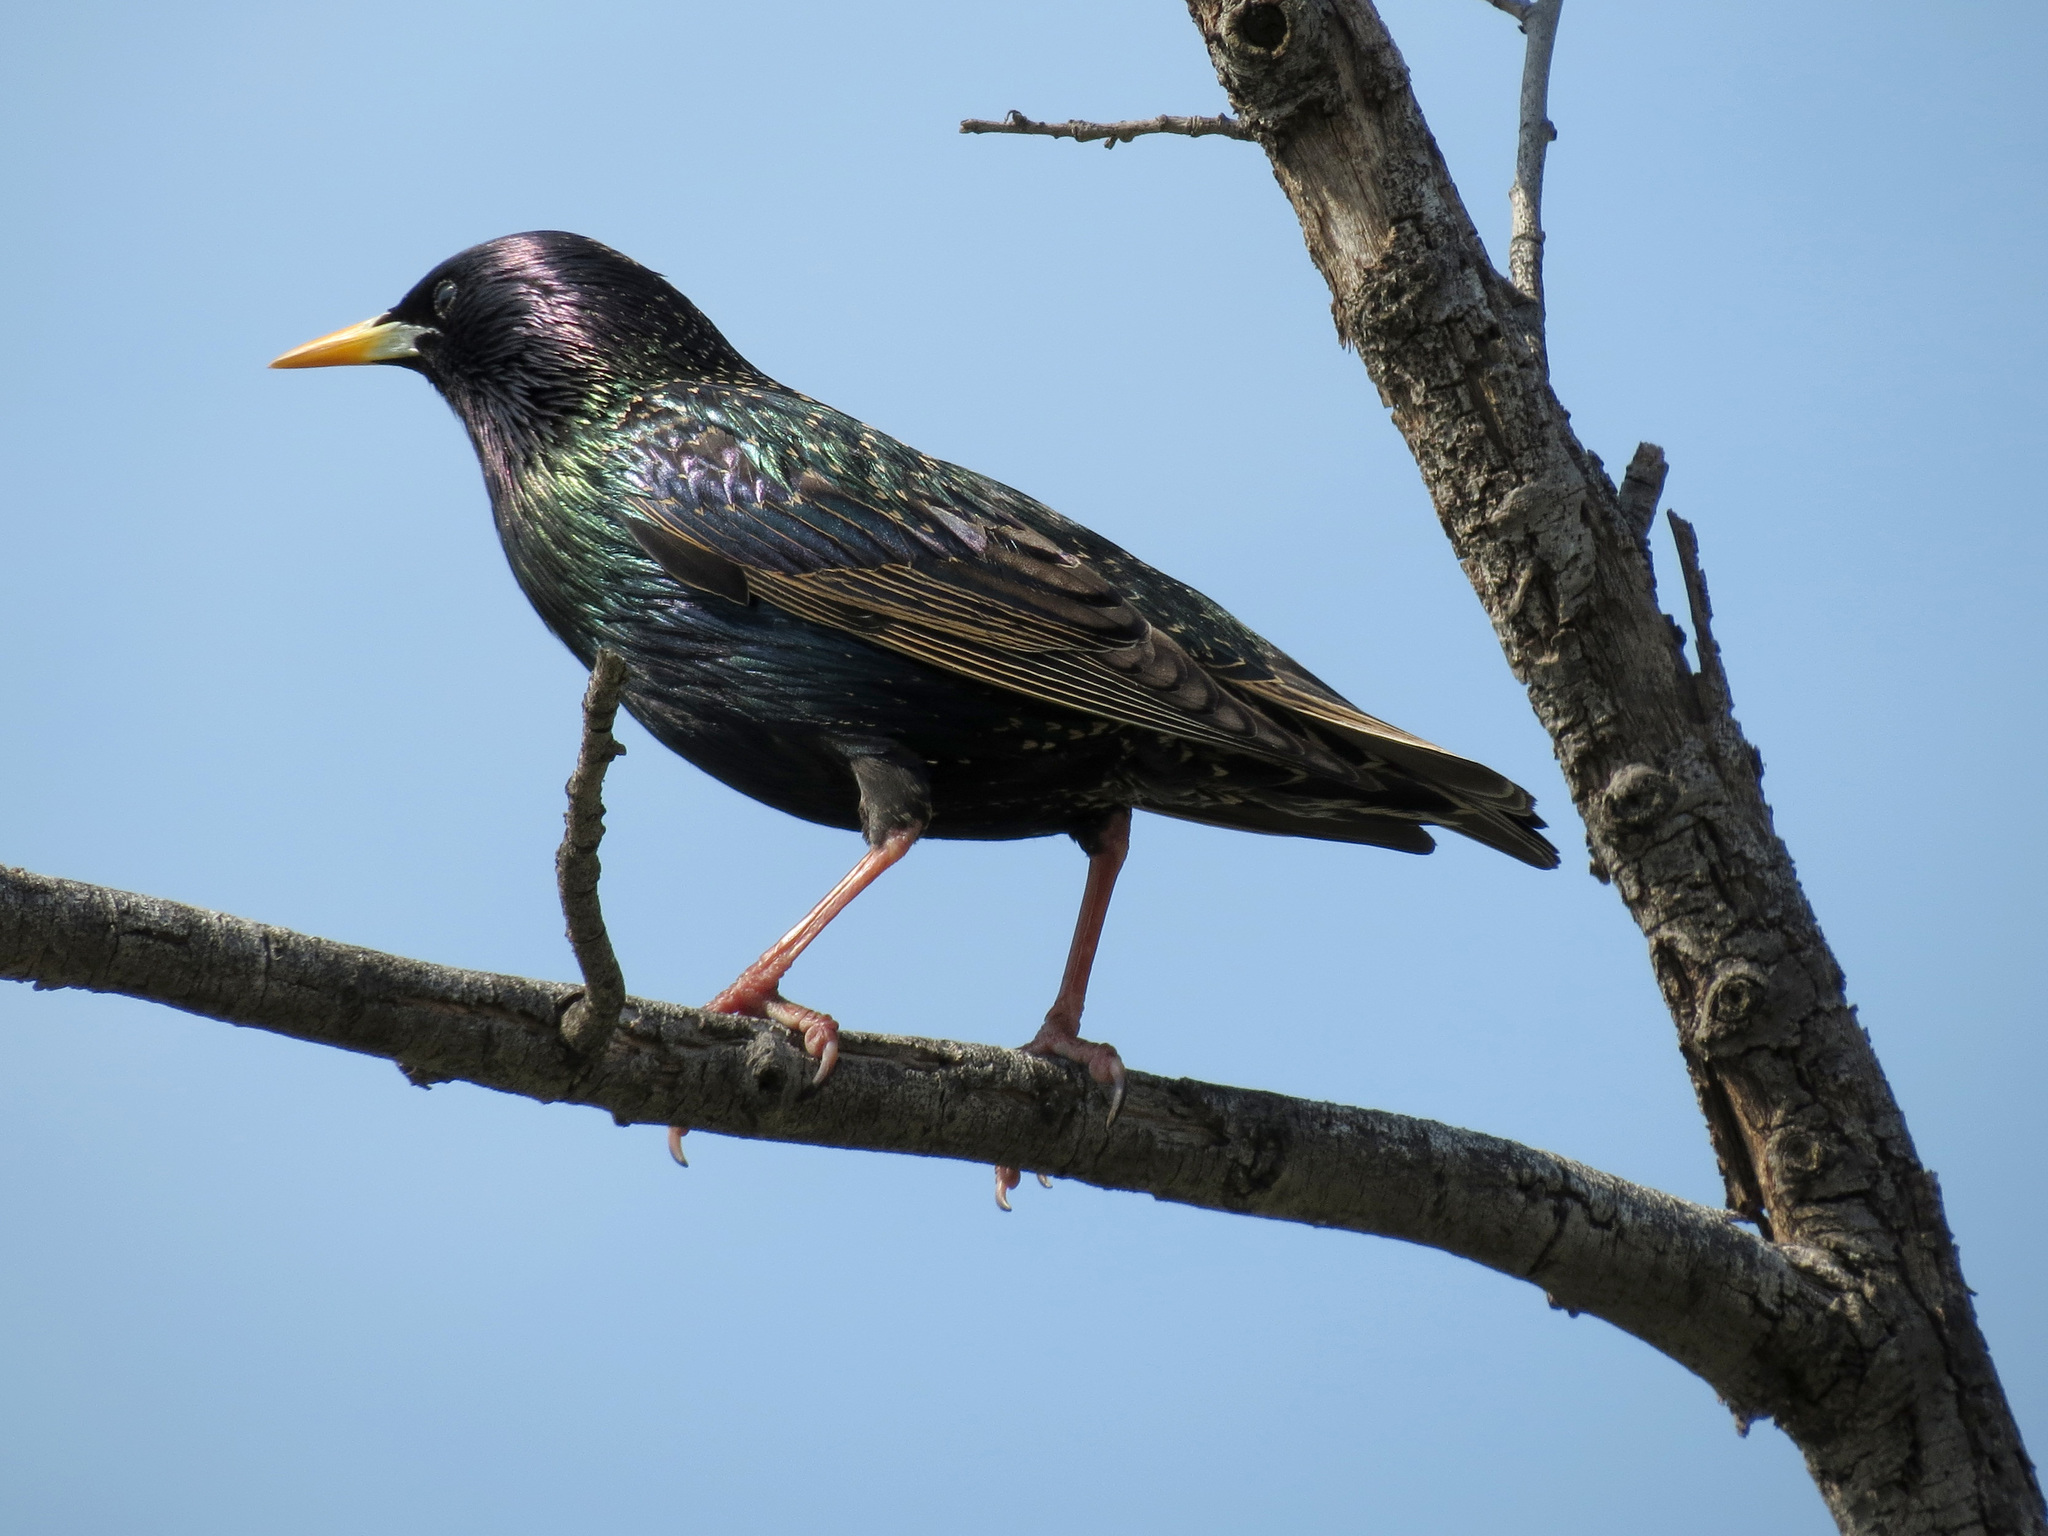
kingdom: Animalia
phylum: Chordata
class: Aves
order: Passeriformes
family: Sturnidae
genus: Sturnus
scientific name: Sturnus vulgaris
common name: Common starling
